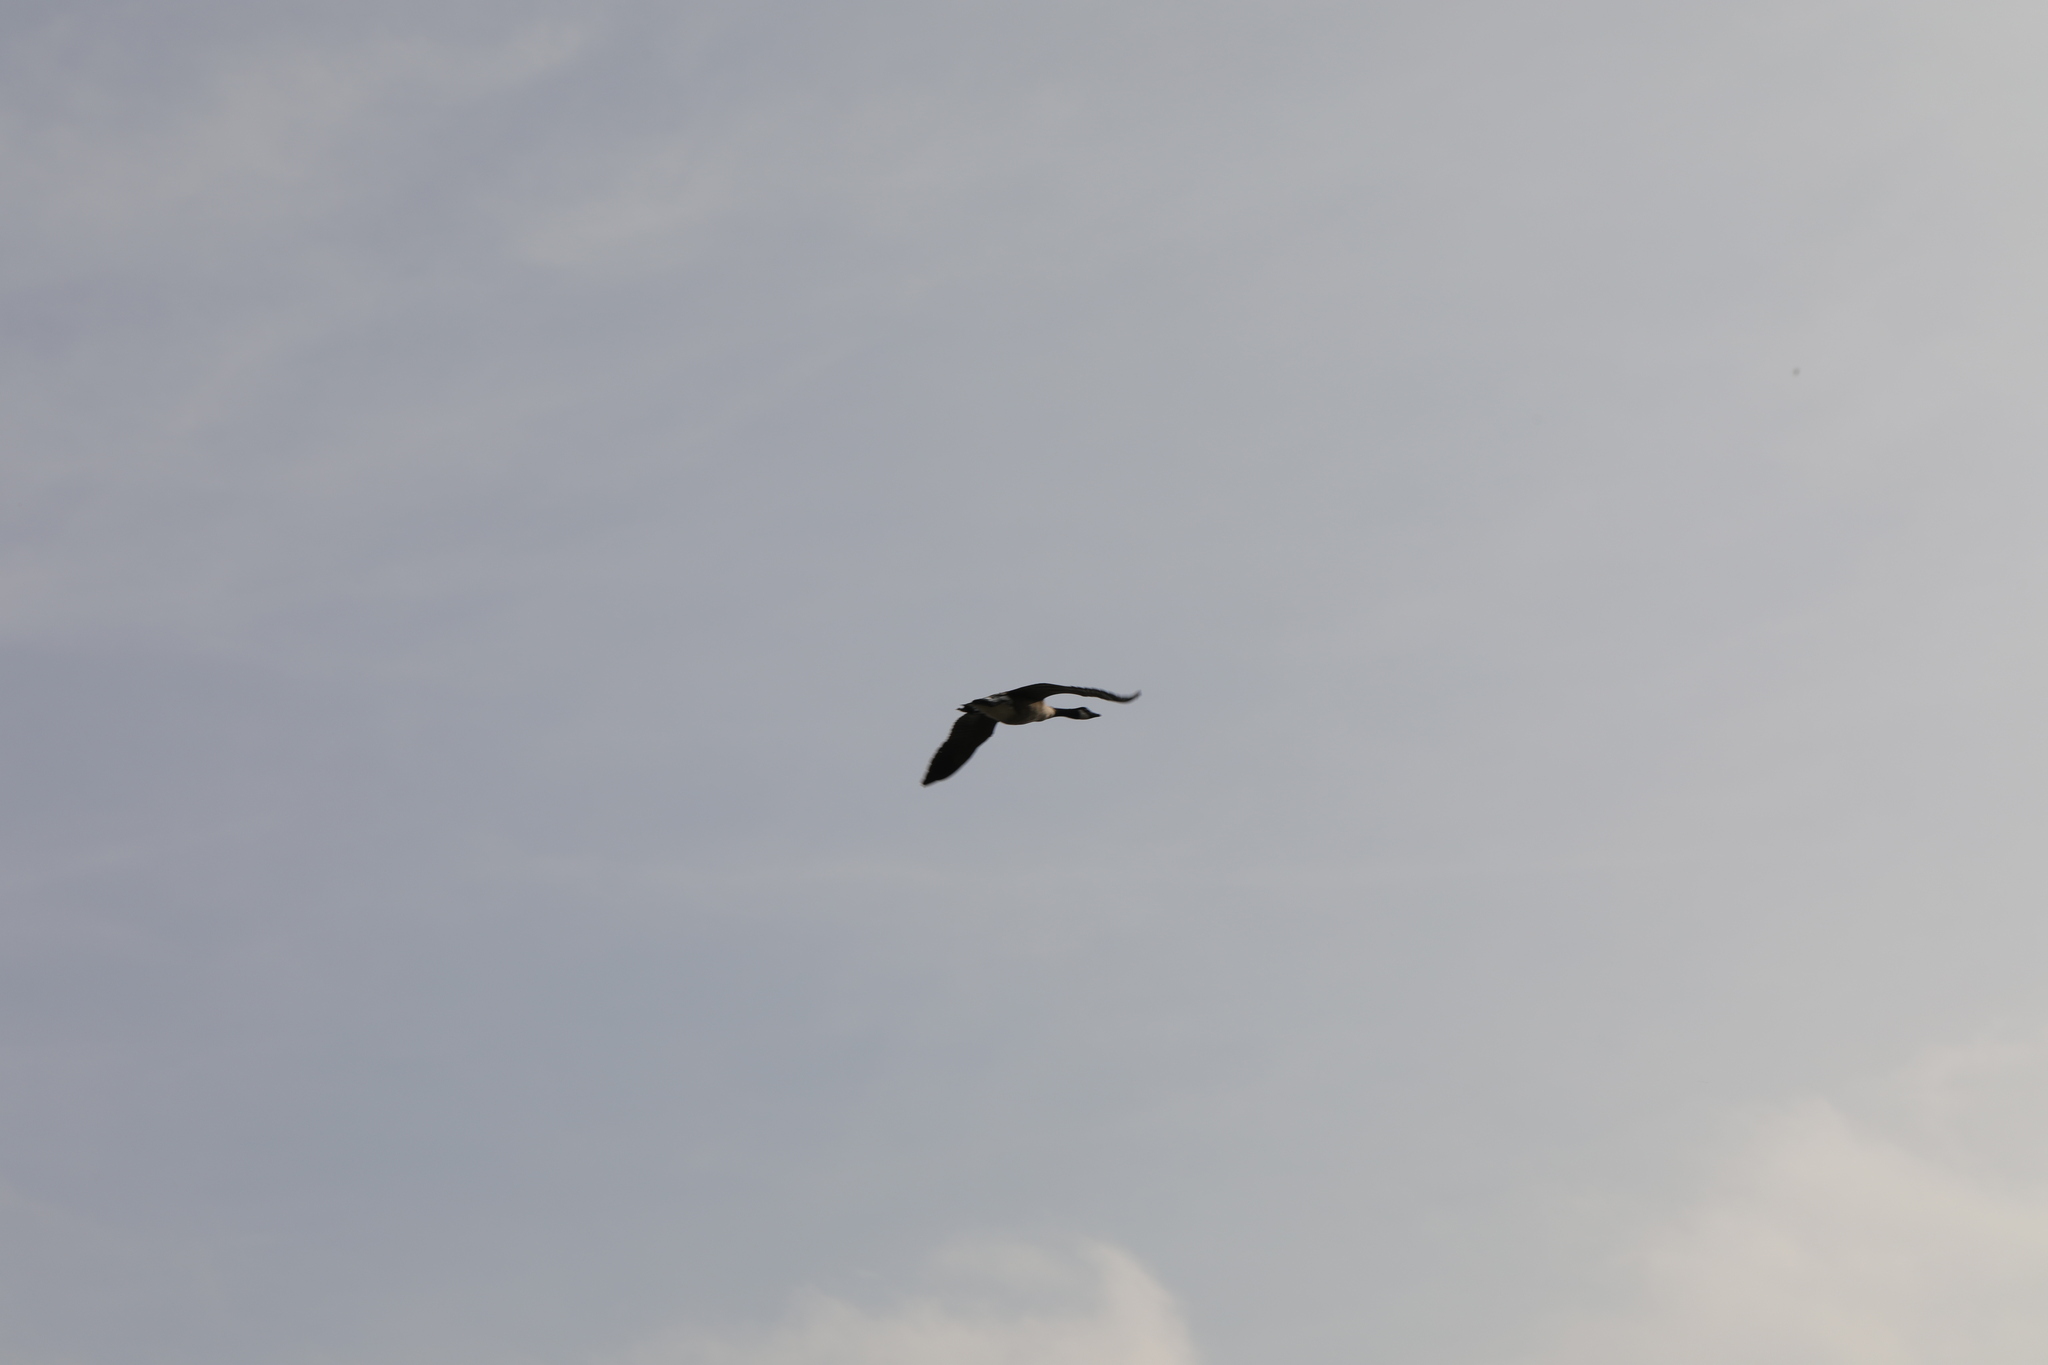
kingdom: Animalia
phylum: Chordata
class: Aves
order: Anseriformes
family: Anatidae
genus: Branta
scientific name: Branta canadensis
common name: Canada goose
